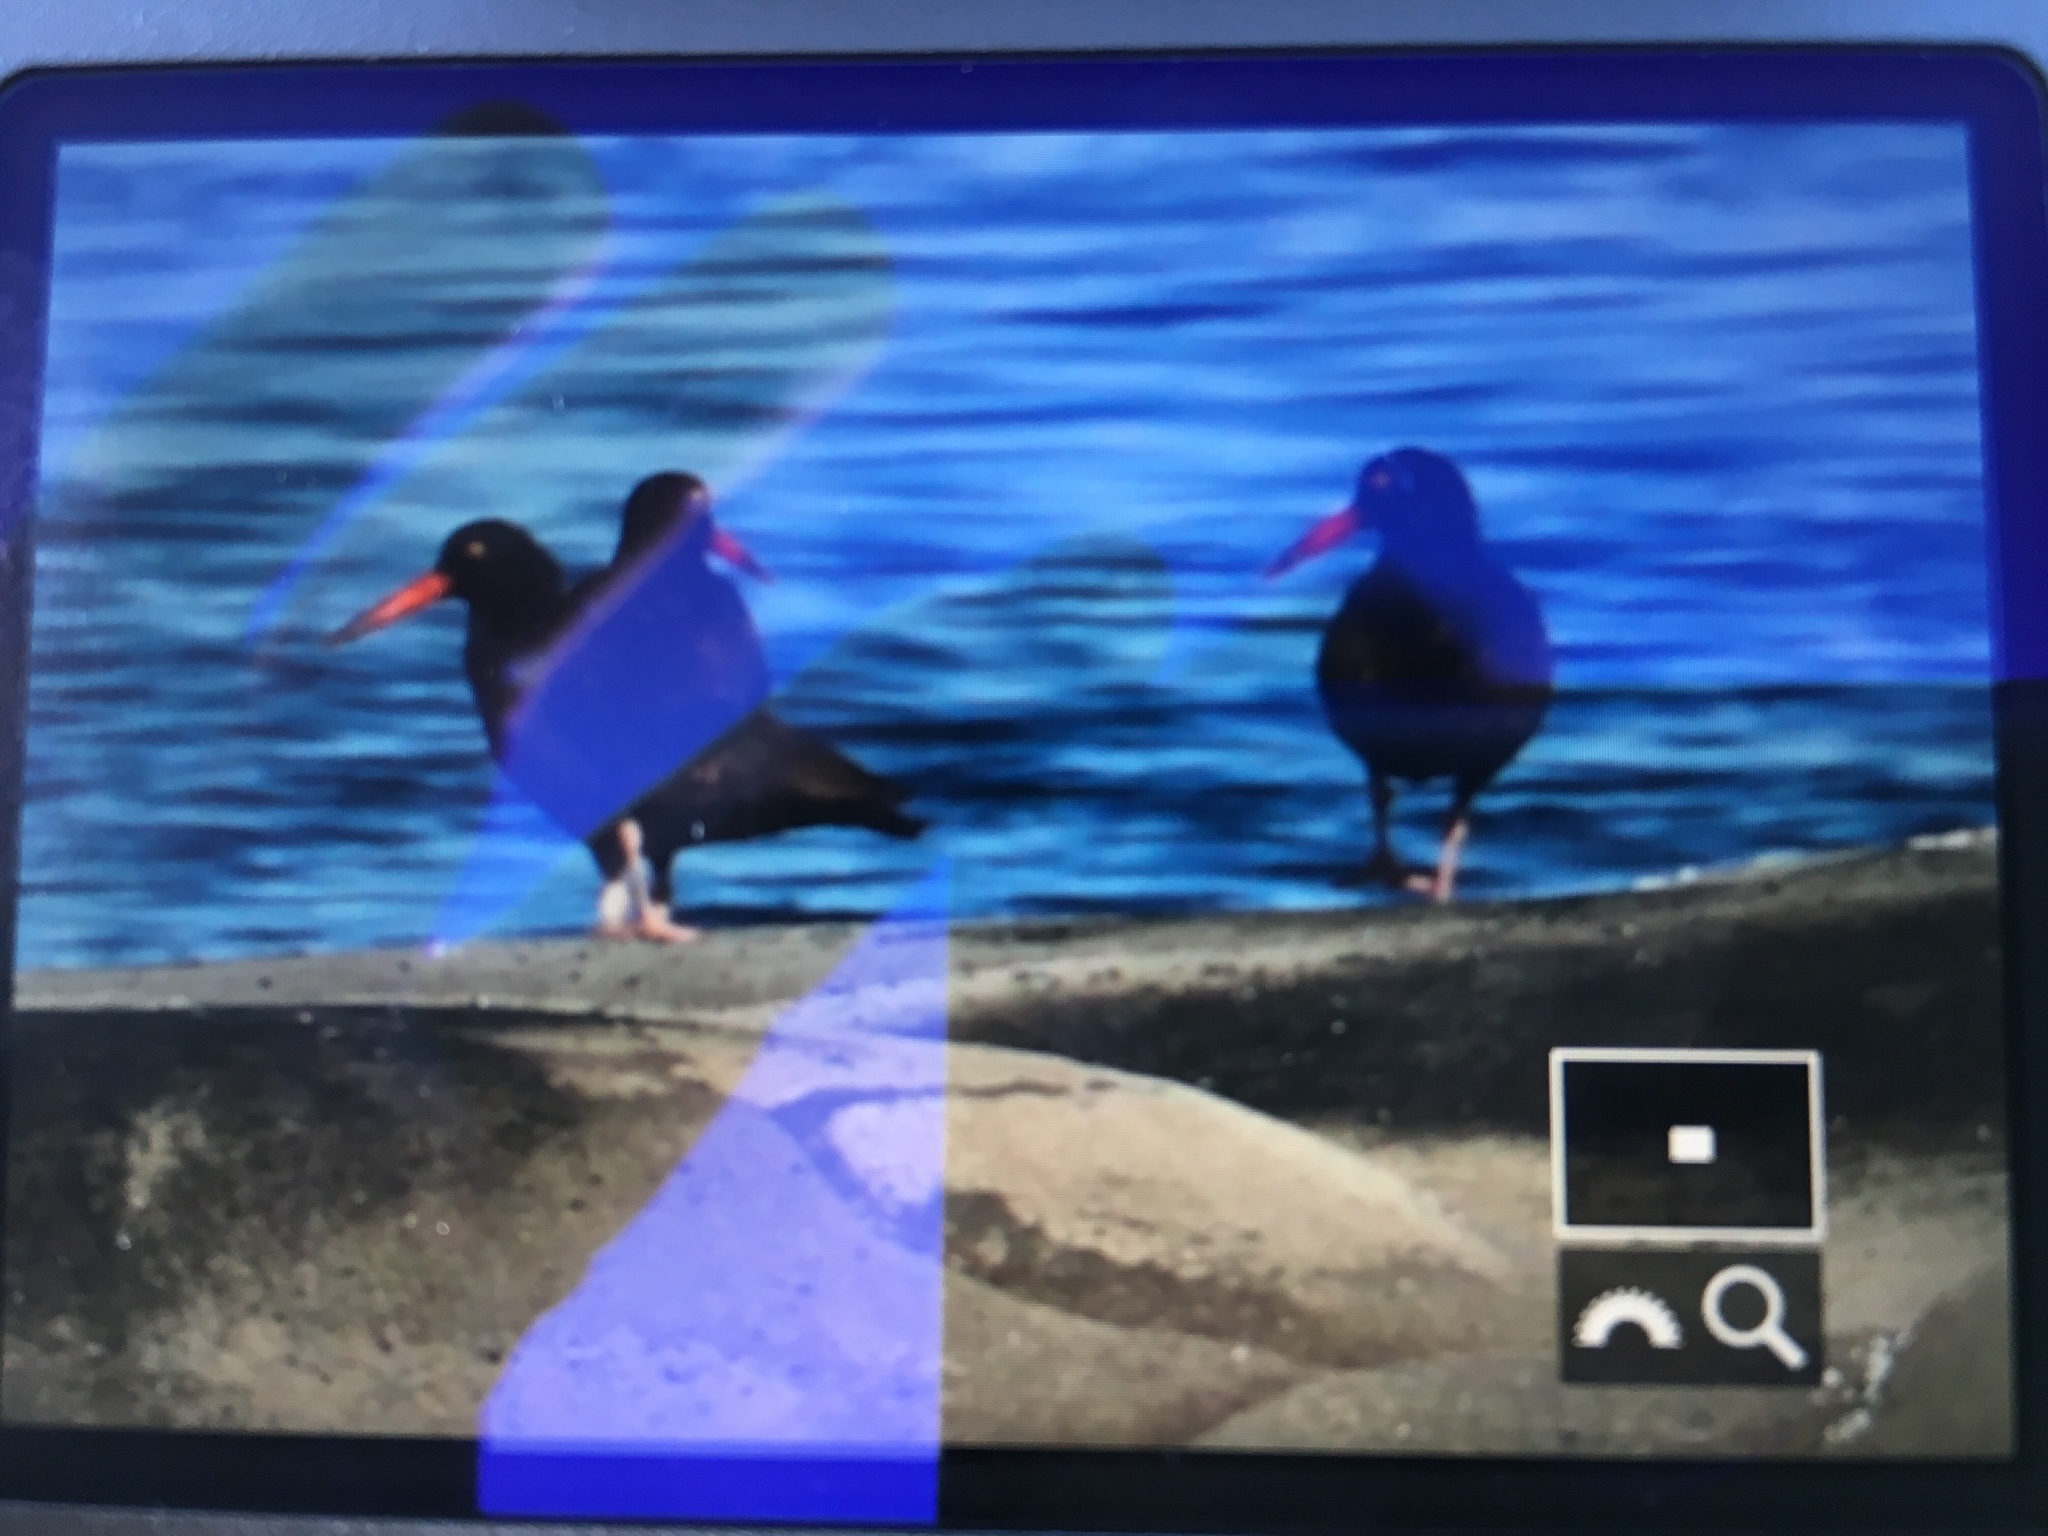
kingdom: Animalia
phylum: Chordata
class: Aves
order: Charadriiformes
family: Haematopodidae
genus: Haematopus
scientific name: Haematopus bachmani
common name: Black oystercatcher
